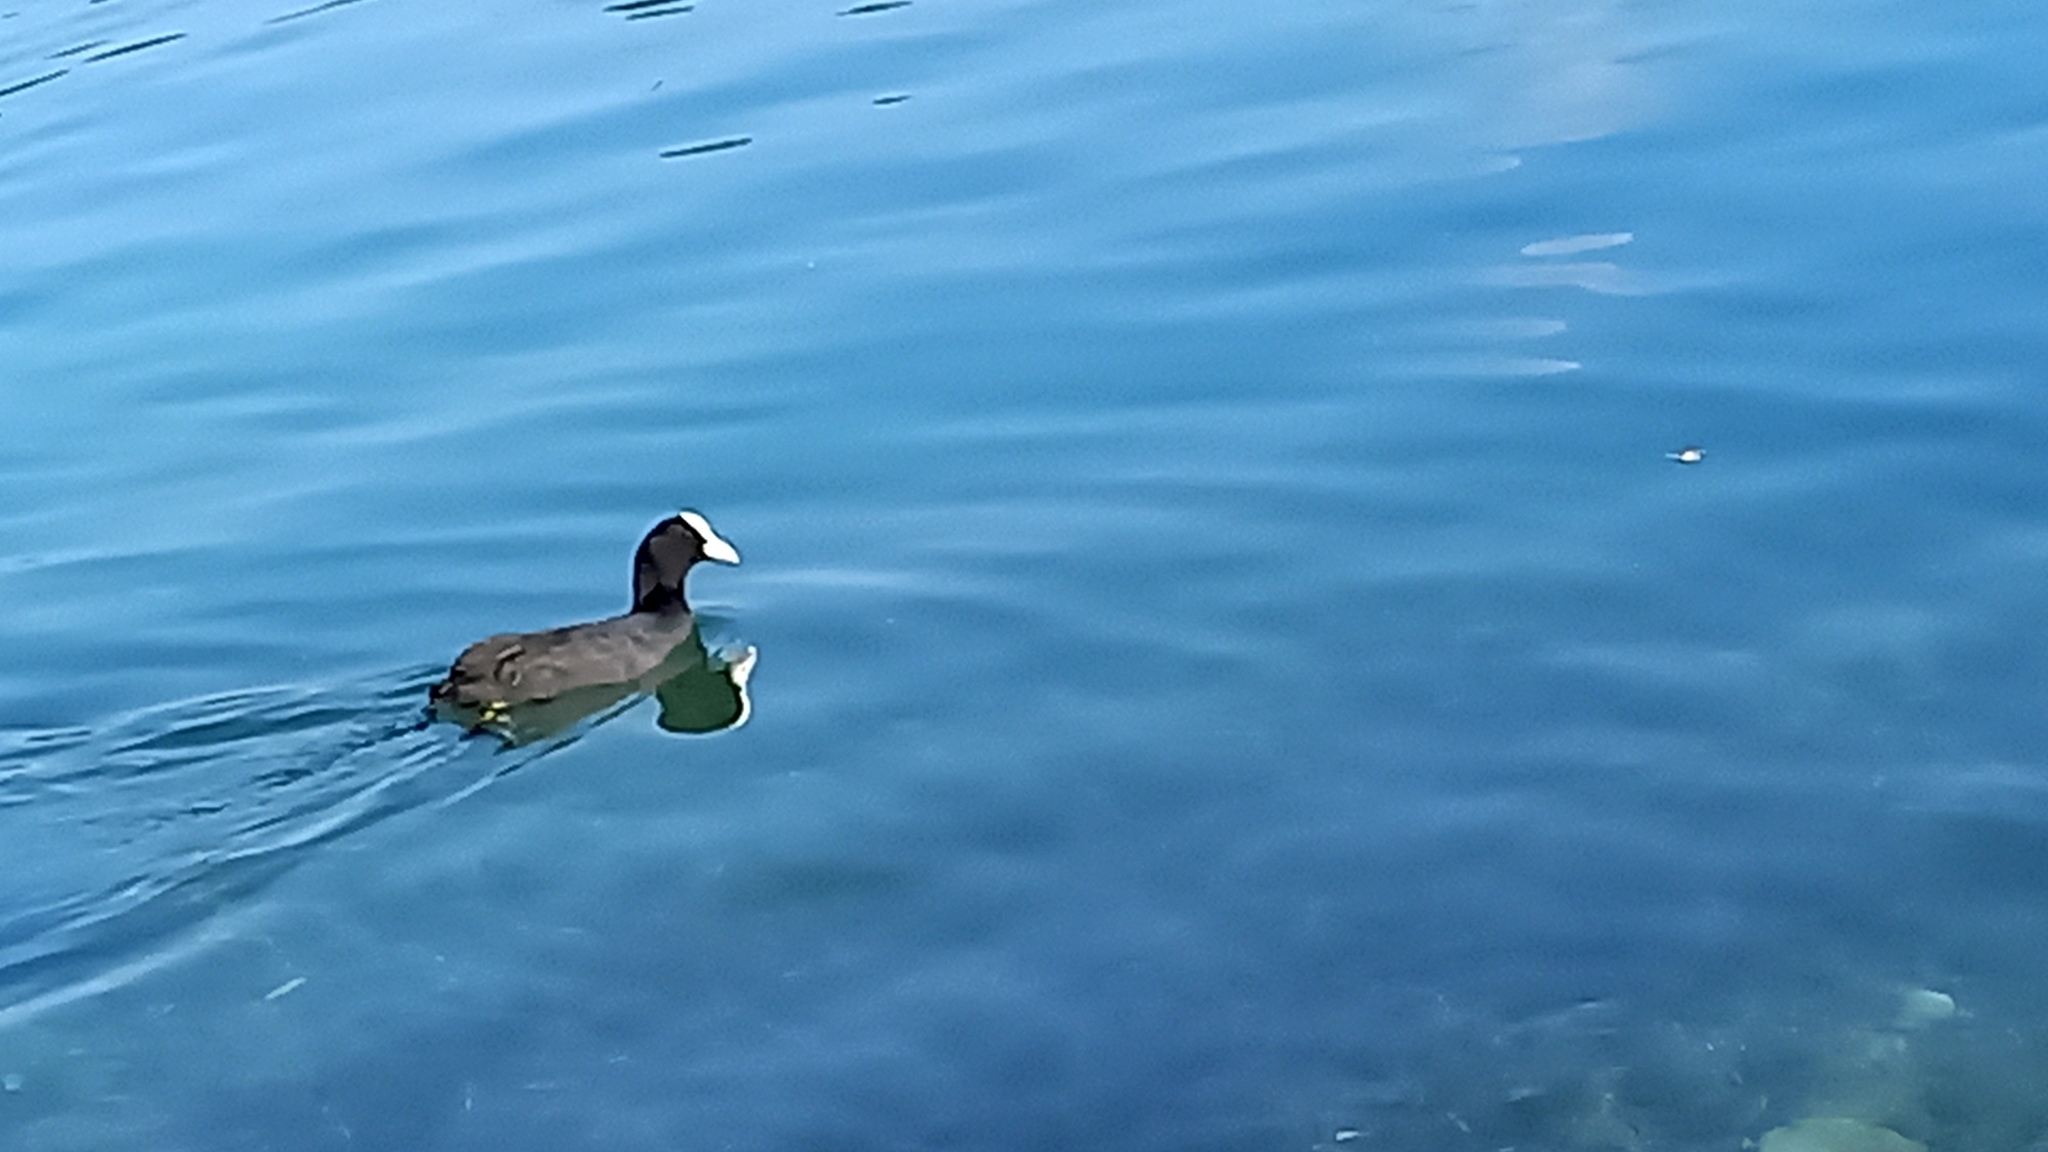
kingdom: Animalia
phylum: Chordata
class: Aves
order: Gruiformes
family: Rallidae
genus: Fulica
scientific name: Fulica atra
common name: Eurasian coot
